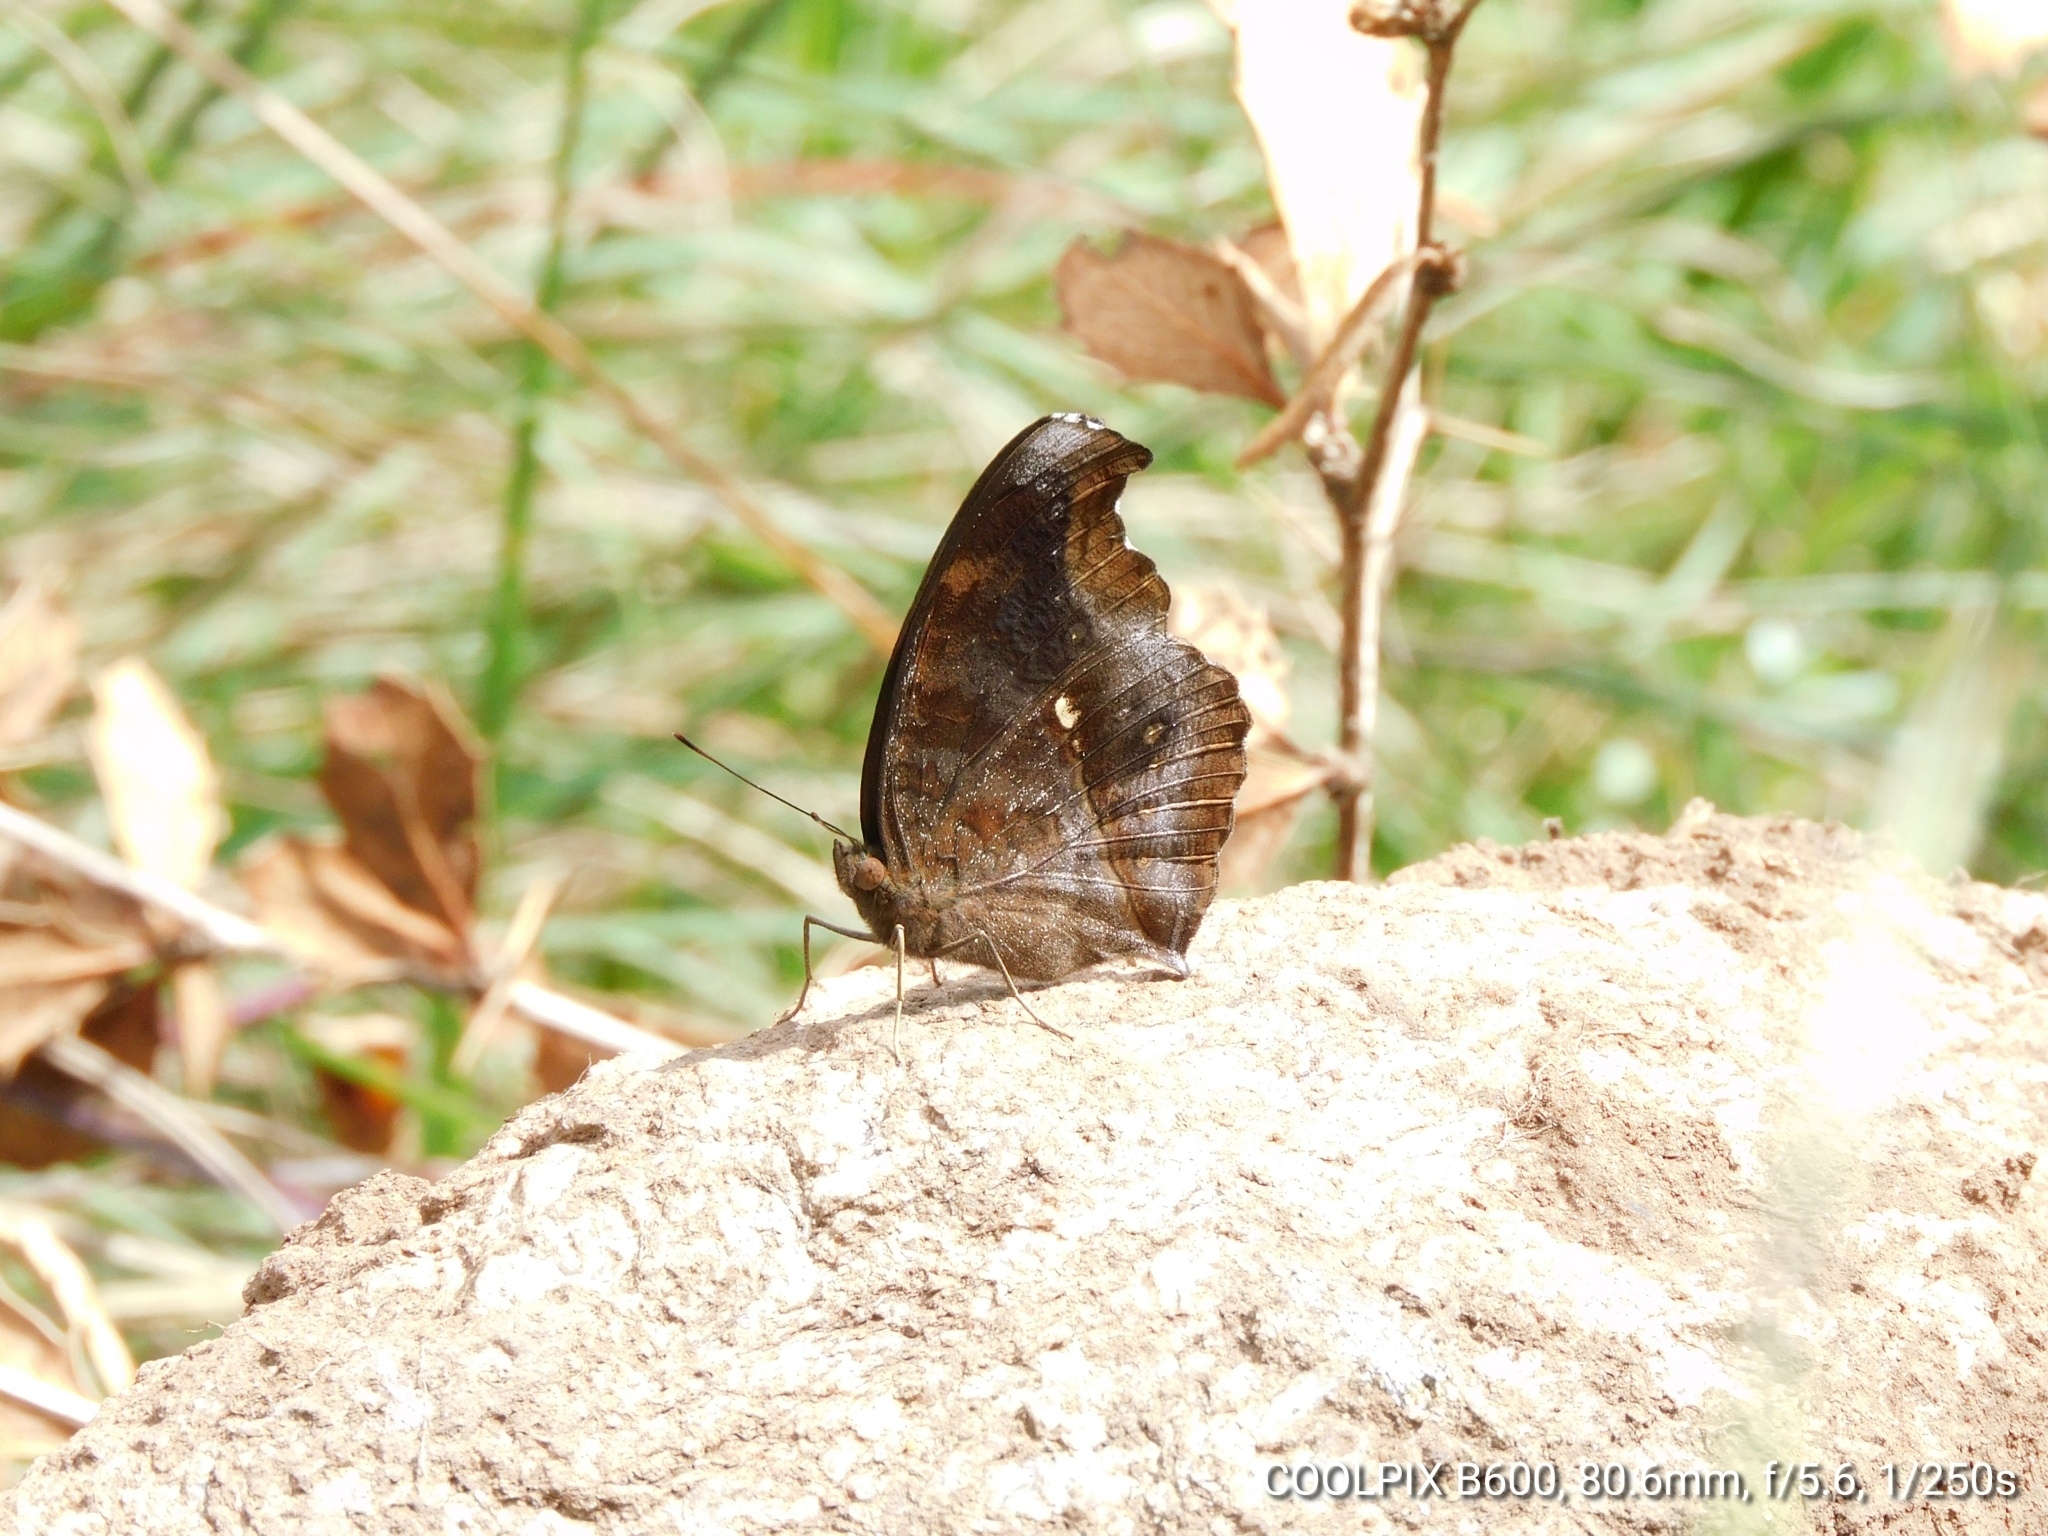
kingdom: Animalia
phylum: Arthropoda
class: Insecta
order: Lepidoptera
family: Nymphalidae
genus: Junonia
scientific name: Junonia iphita
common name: Chocolate pansy
